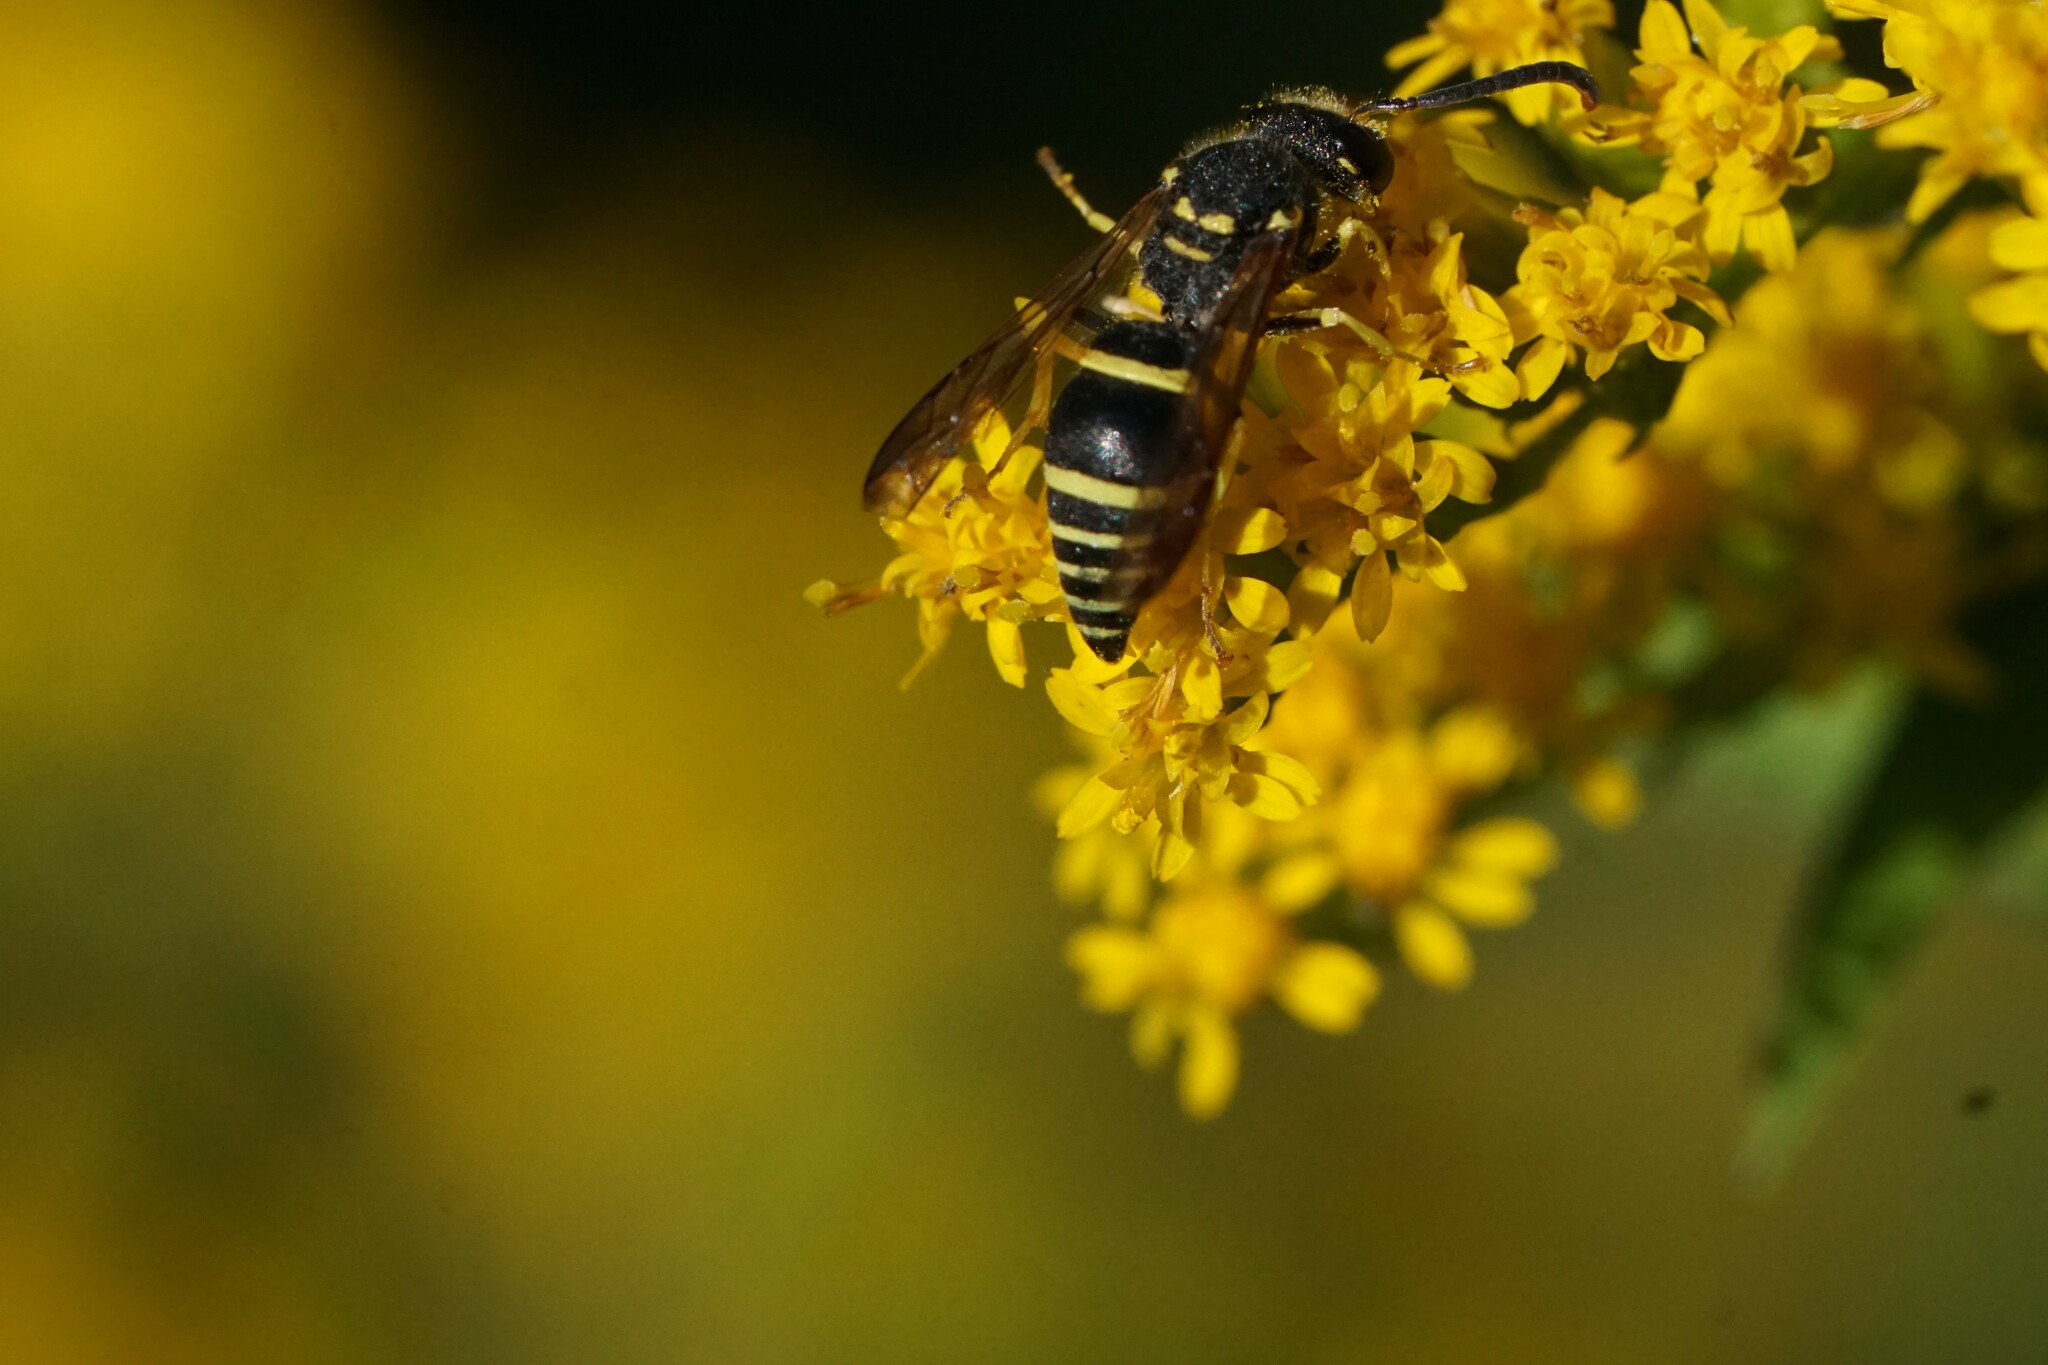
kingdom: Animalia
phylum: Arthropoda
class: Insecta
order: Hymenoptera
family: Vespidae
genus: Ancistrocerus
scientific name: Ancistrocerus adiabatus
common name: Bramble mason wasp
